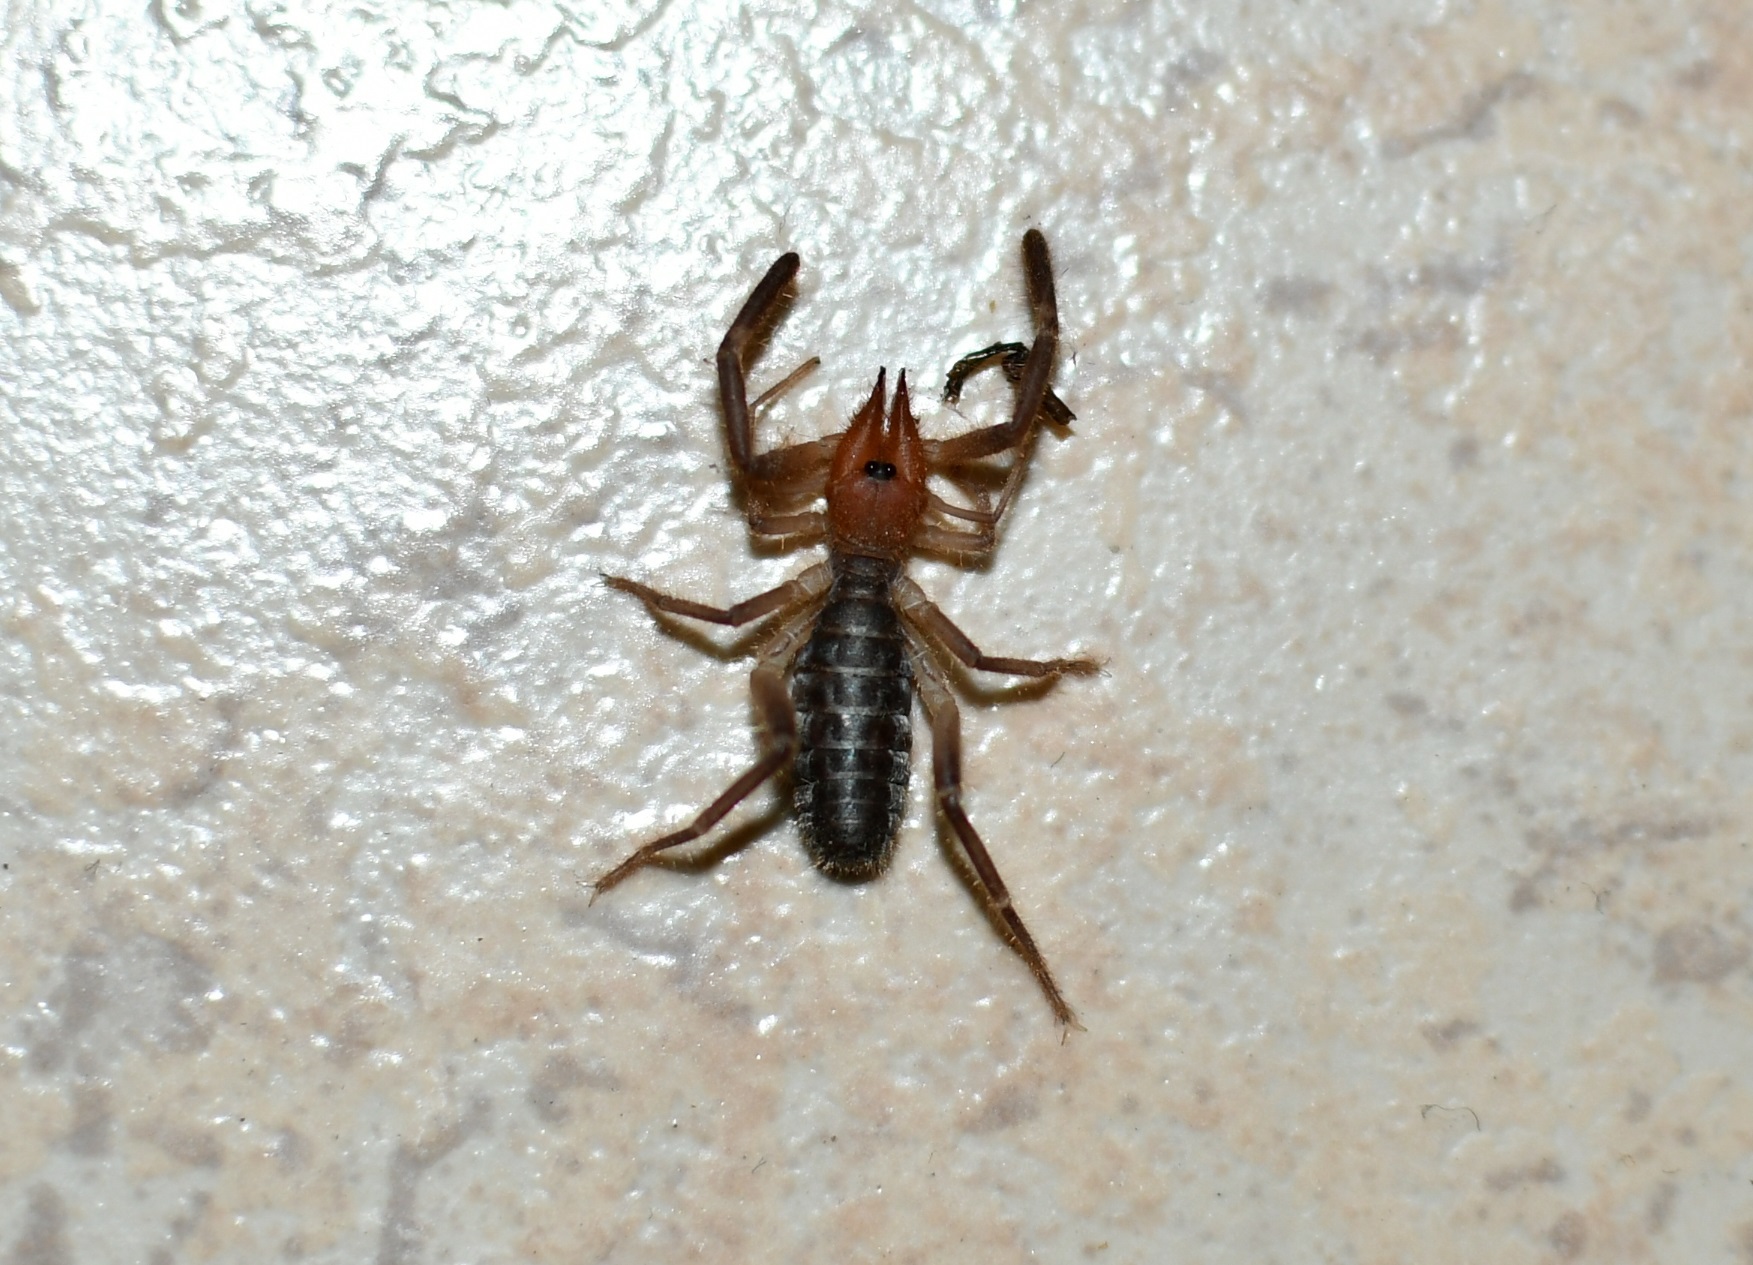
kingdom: Animalia
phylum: Arthropoda
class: Arachnida
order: Solifugae
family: Ammotrechidae
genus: Ammotrecha
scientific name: Ammotrecha chiapasi
